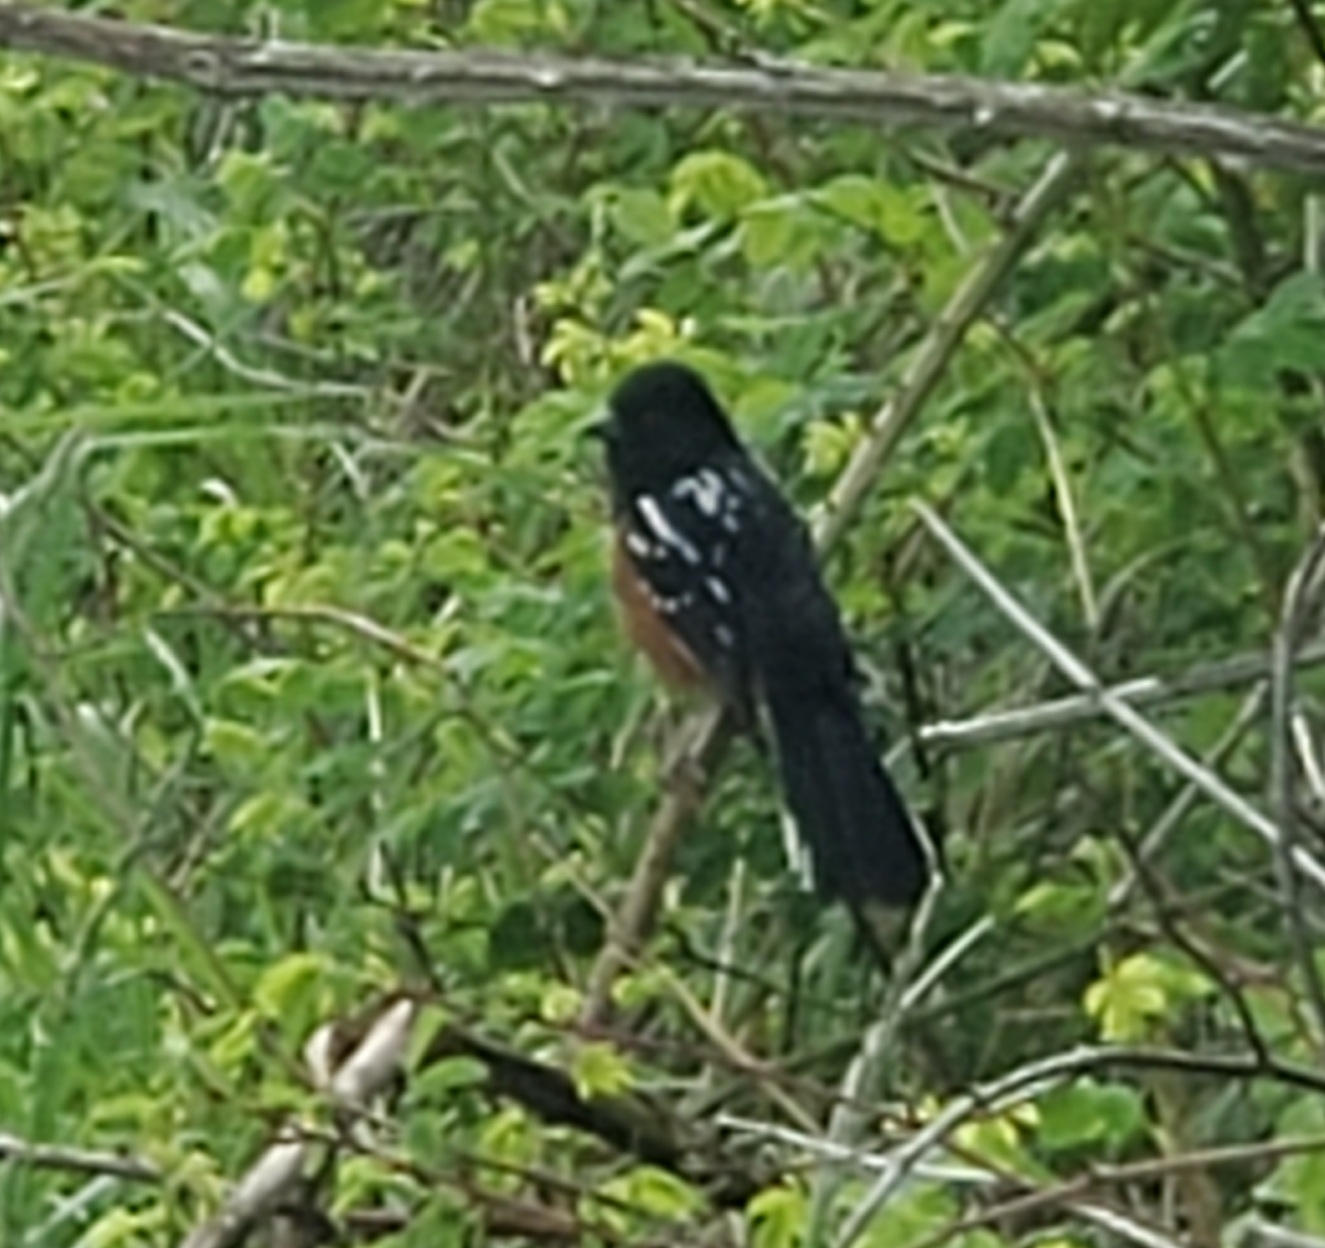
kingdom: Animalia
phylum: Chordata
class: Aves
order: Passeriformes
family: Passerellidae
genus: Pipilo
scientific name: Pipilo maculatus
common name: Spotted towhee
